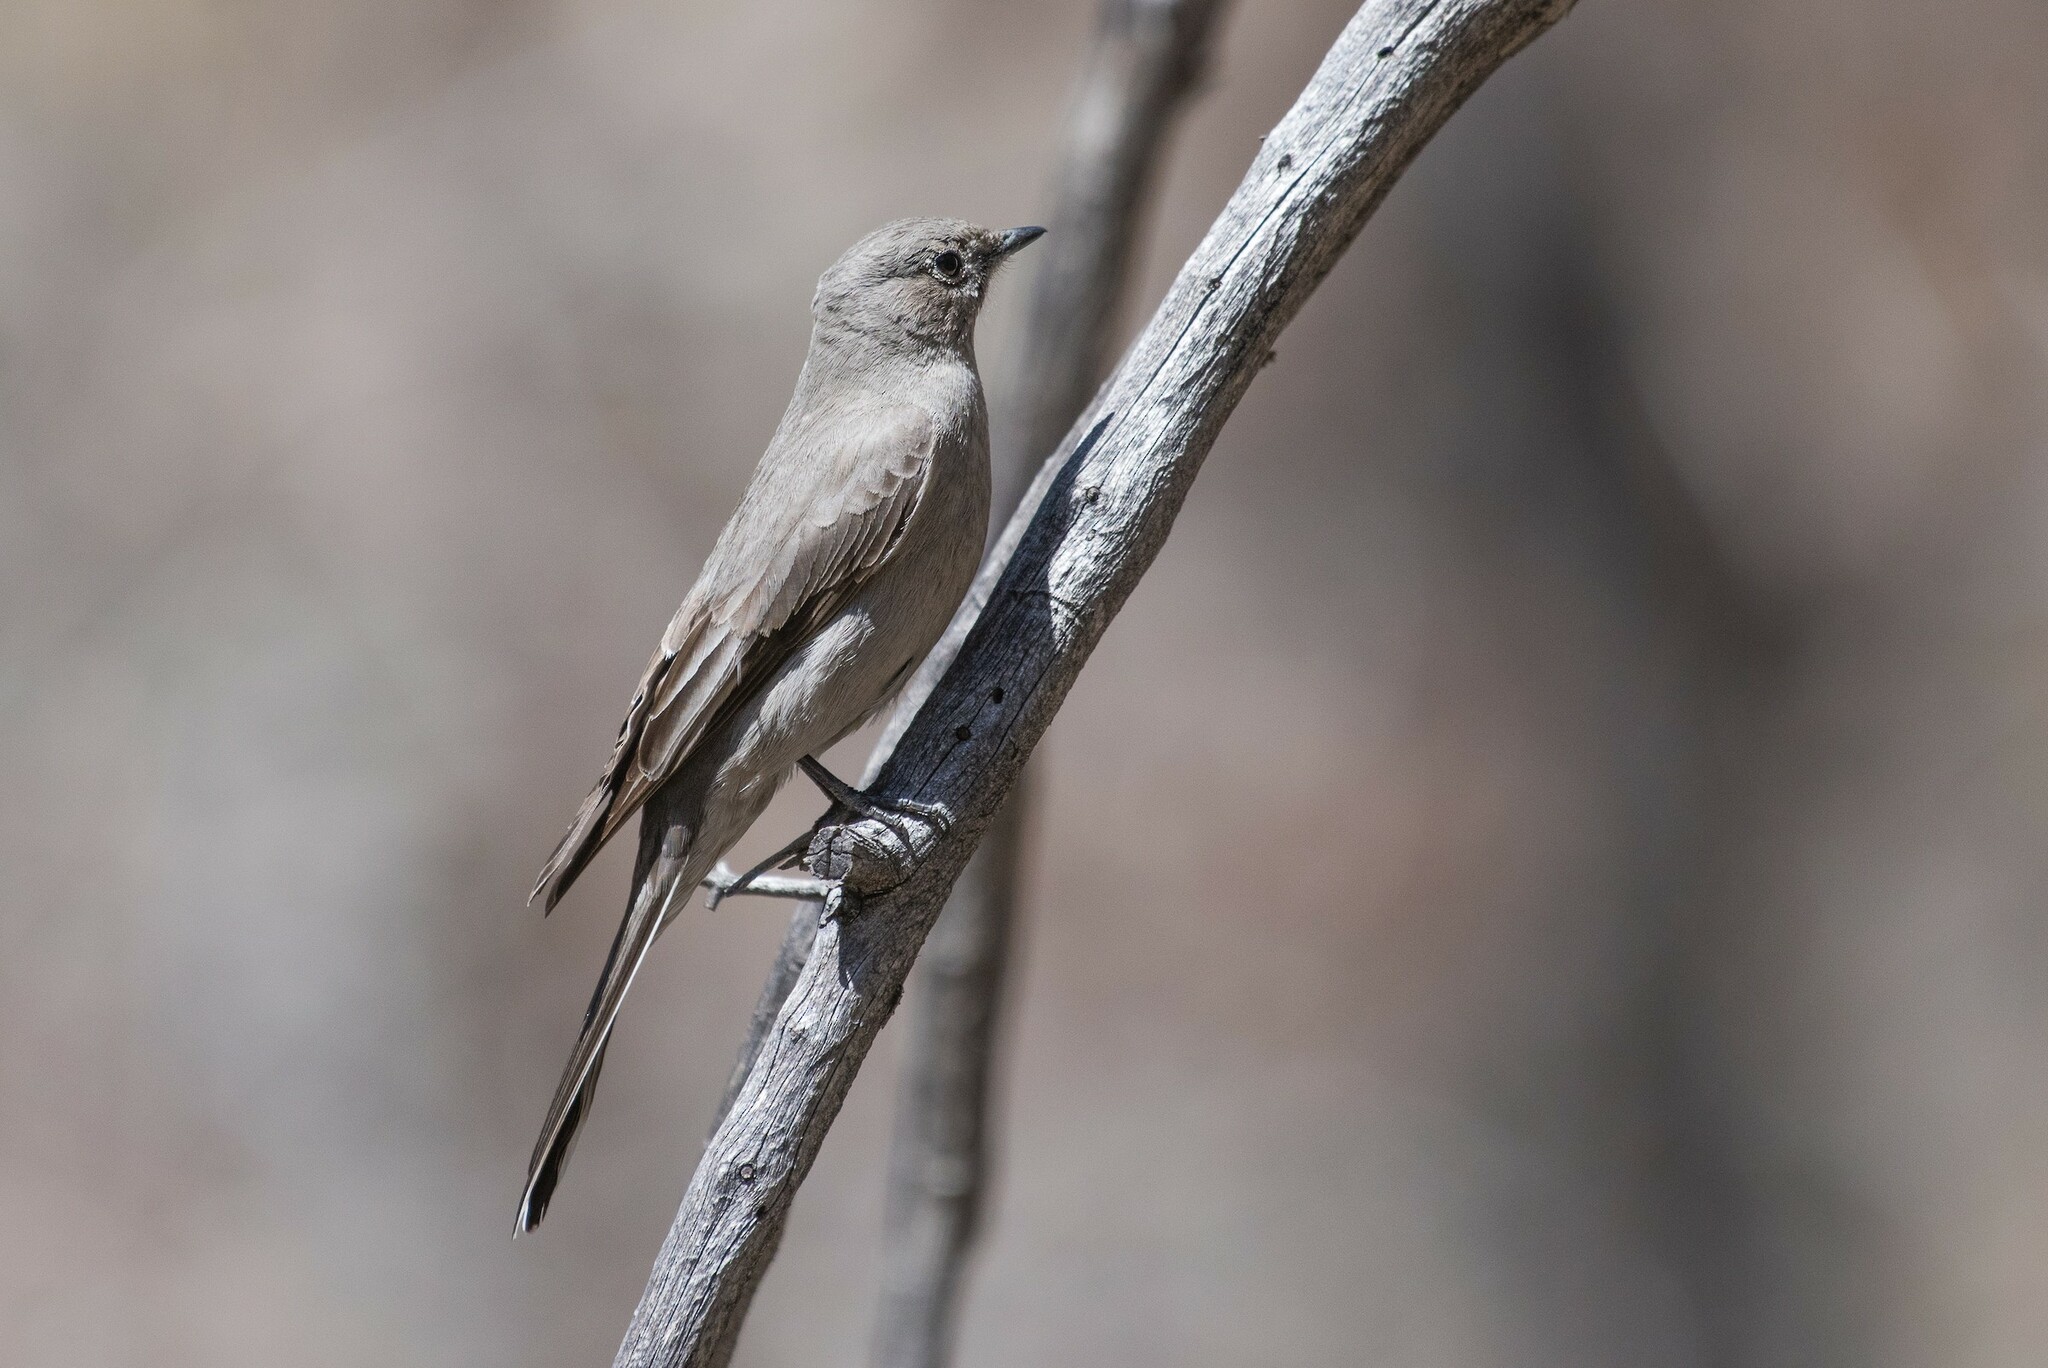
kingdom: Animalia
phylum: Chordata
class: Aves
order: Passeriformes
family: Turdidae
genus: Myadestes
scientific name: Myadestes townsendi
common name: Townsend's solitaire
